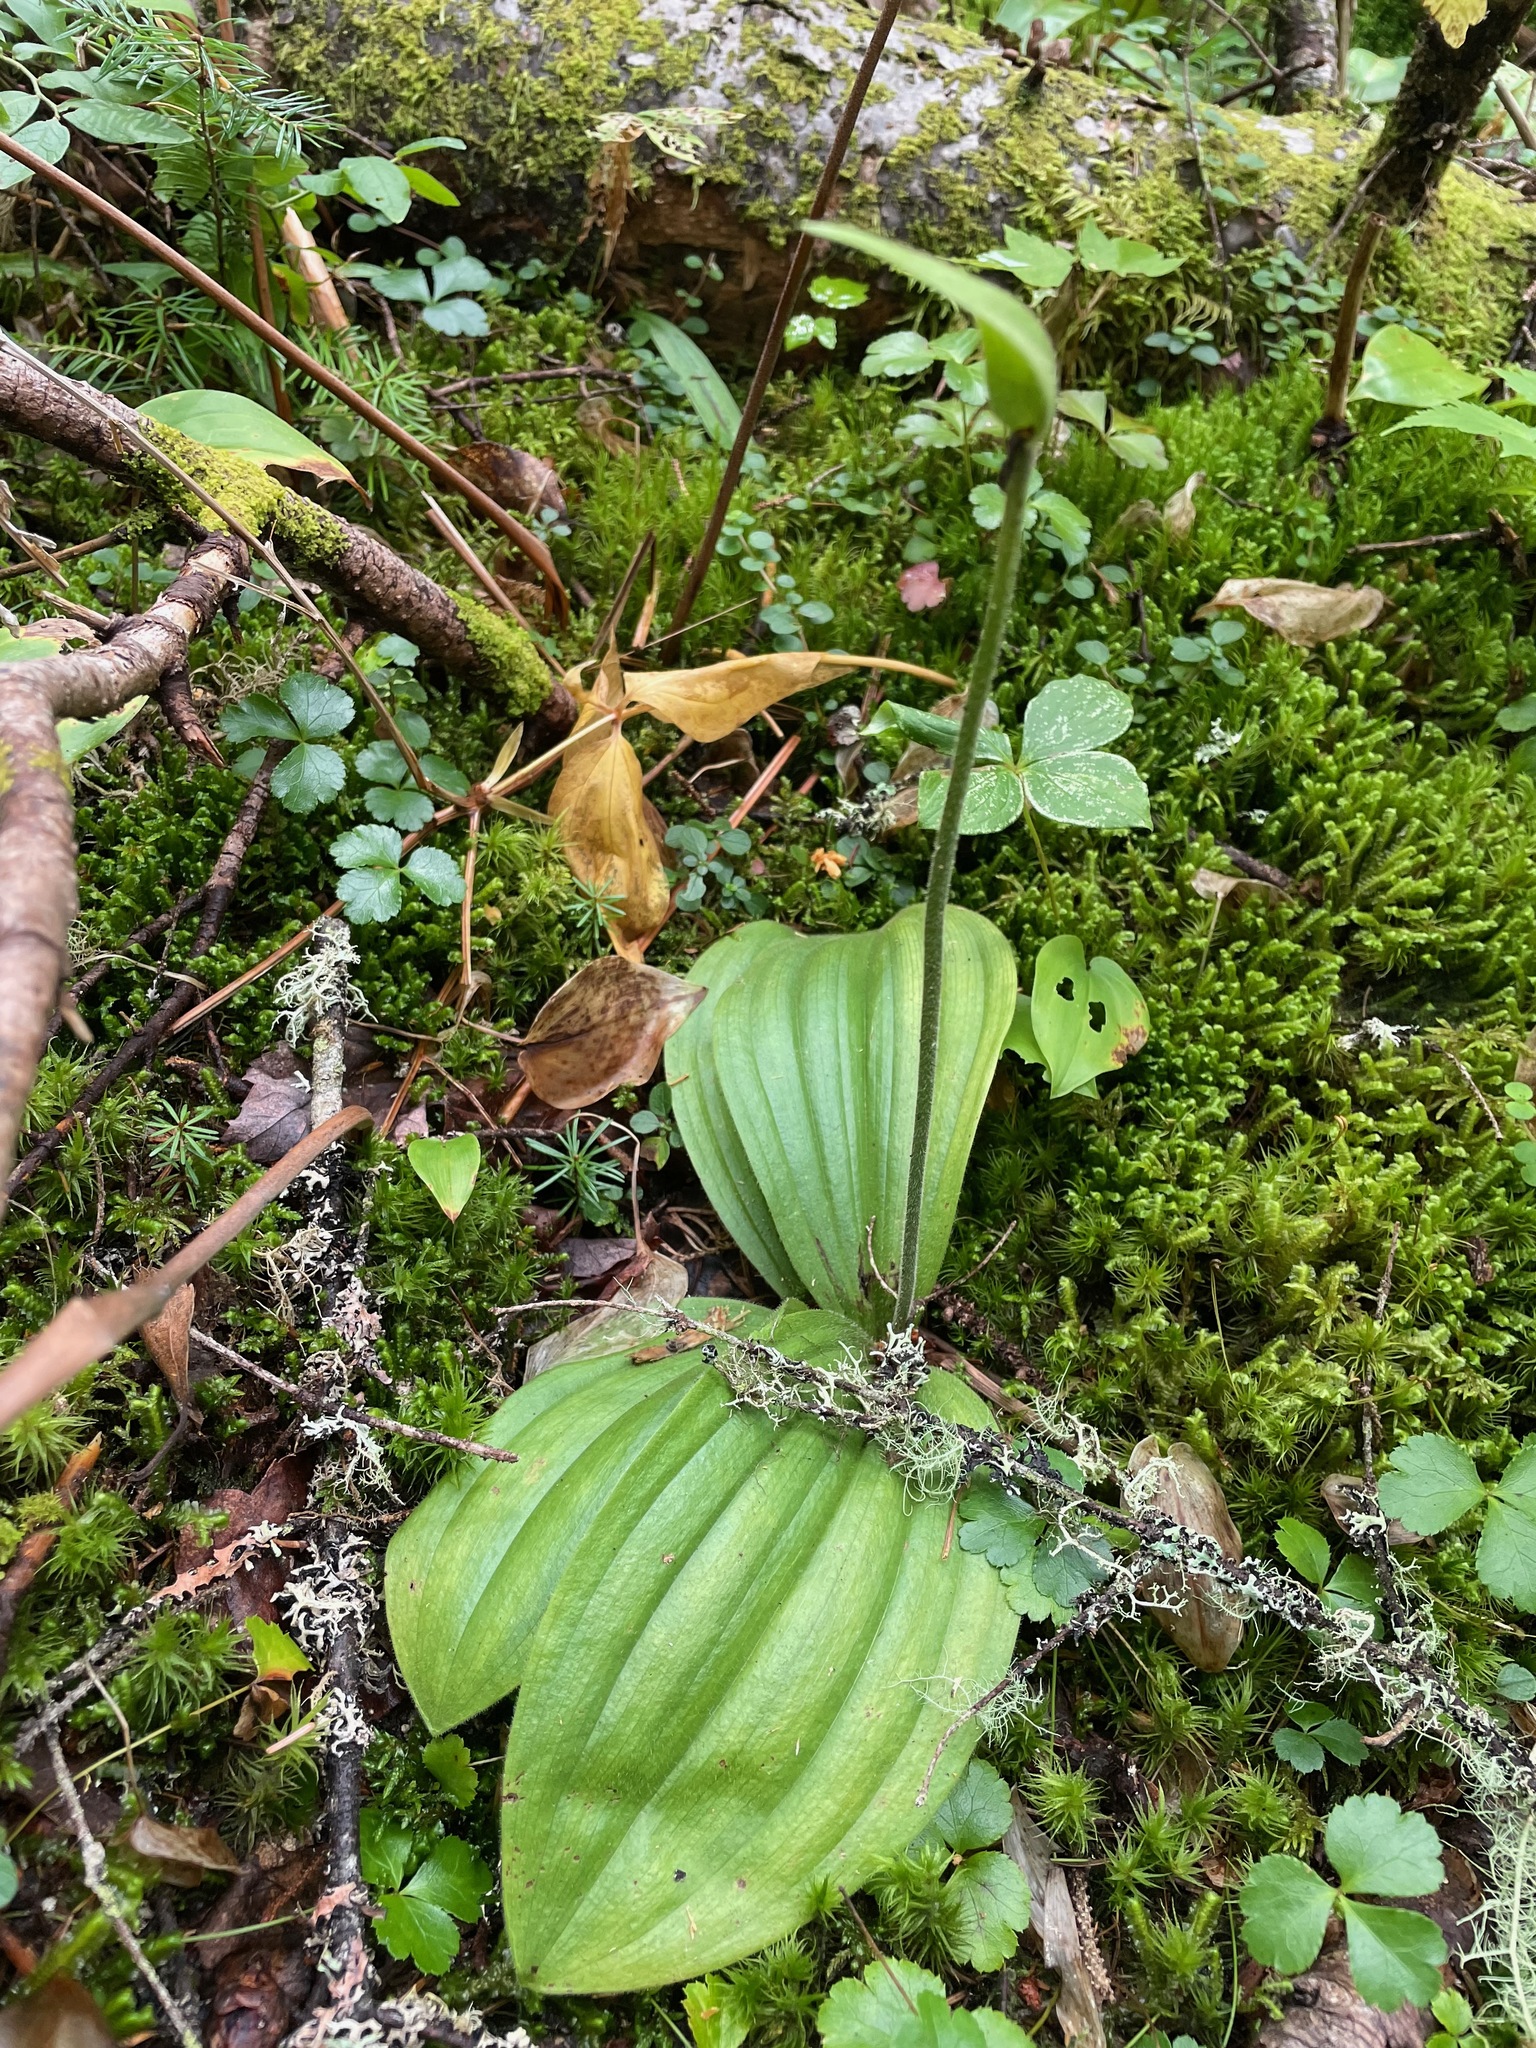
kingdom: Plantae
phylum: Tracheophyta
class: Liliopsida
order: Asparagales
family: Orchidaceae
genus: Cypripedium
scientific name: Cypripedium acaule
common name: Pink lady's-slipper
